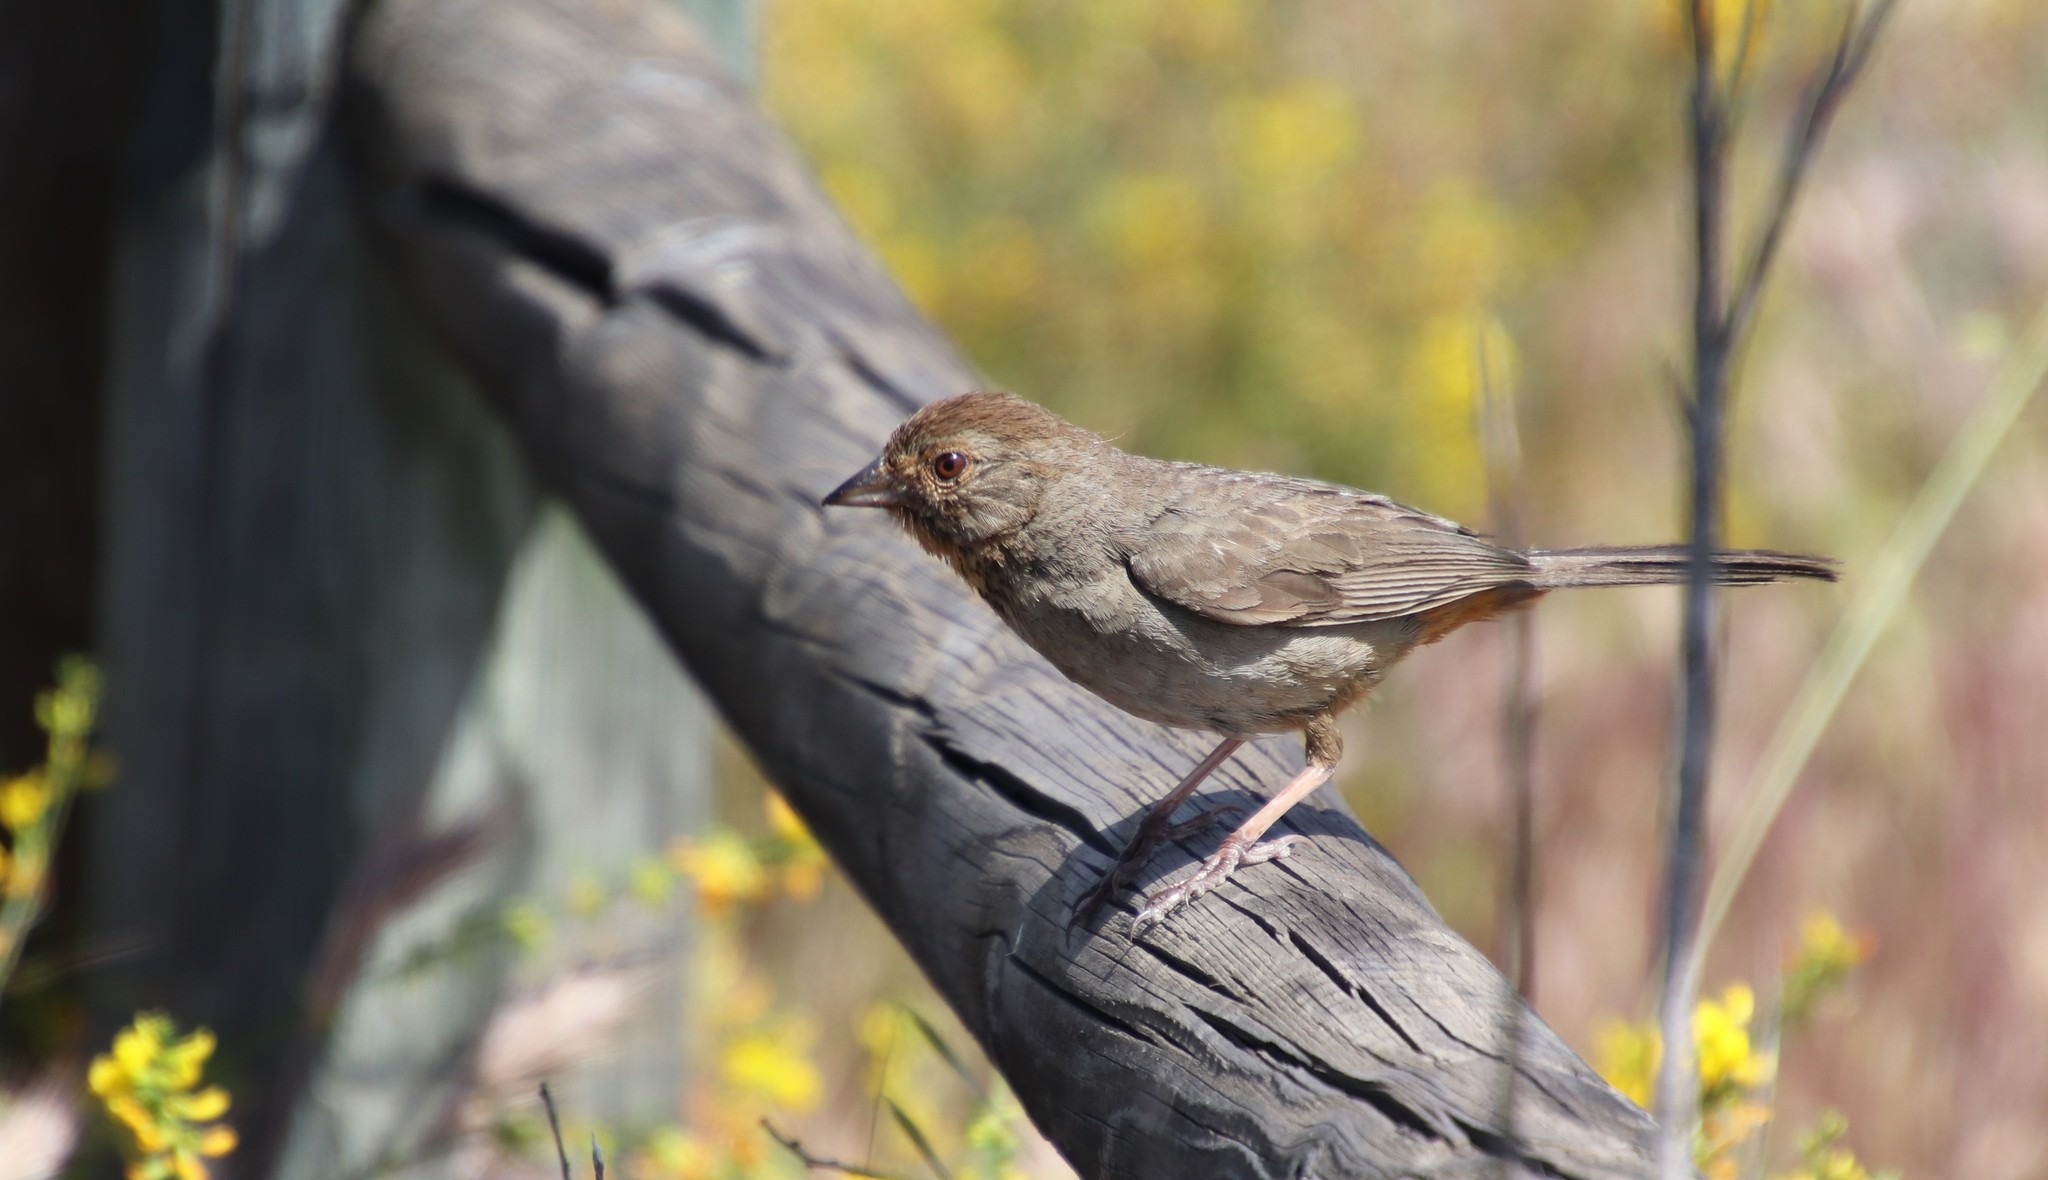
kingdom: Animalia
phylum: Chordata
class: Aves
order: Passeriformes
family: Passerellidae
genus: Melozone
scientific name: Melozone crissalis
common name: California towhee
